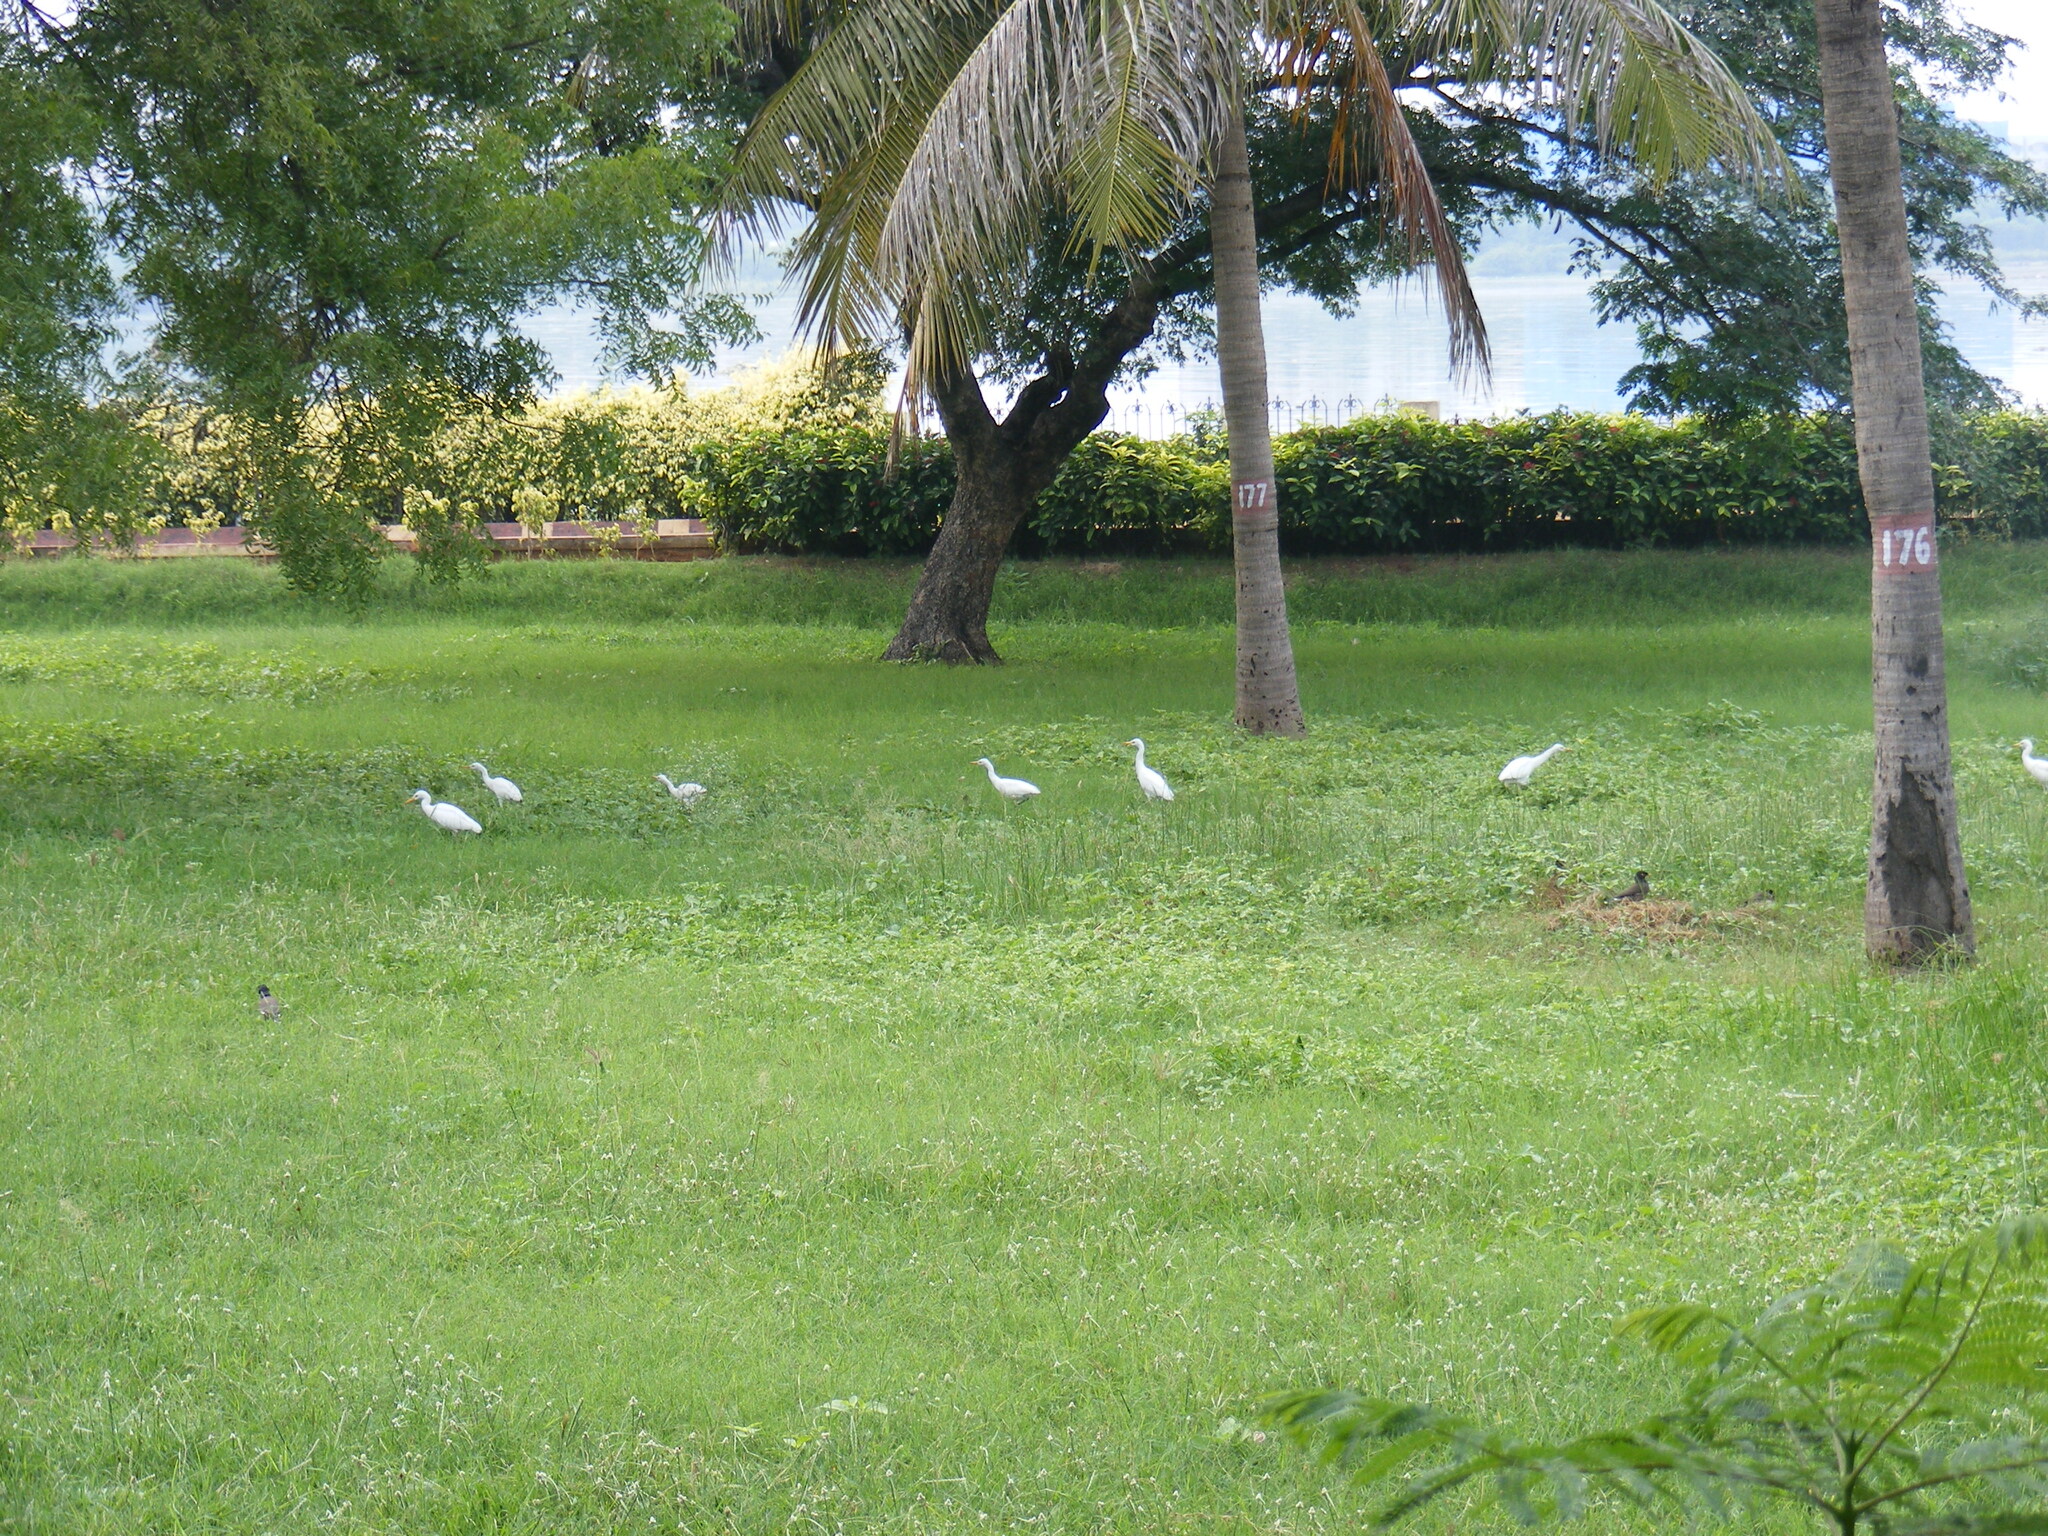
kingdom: Animalia
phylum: Chordata
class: Aves
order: Pelecaniformes
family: Ardeidae
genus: Bubulcus
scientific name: Bubulcus coromandus
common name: Eastern cattle egret
